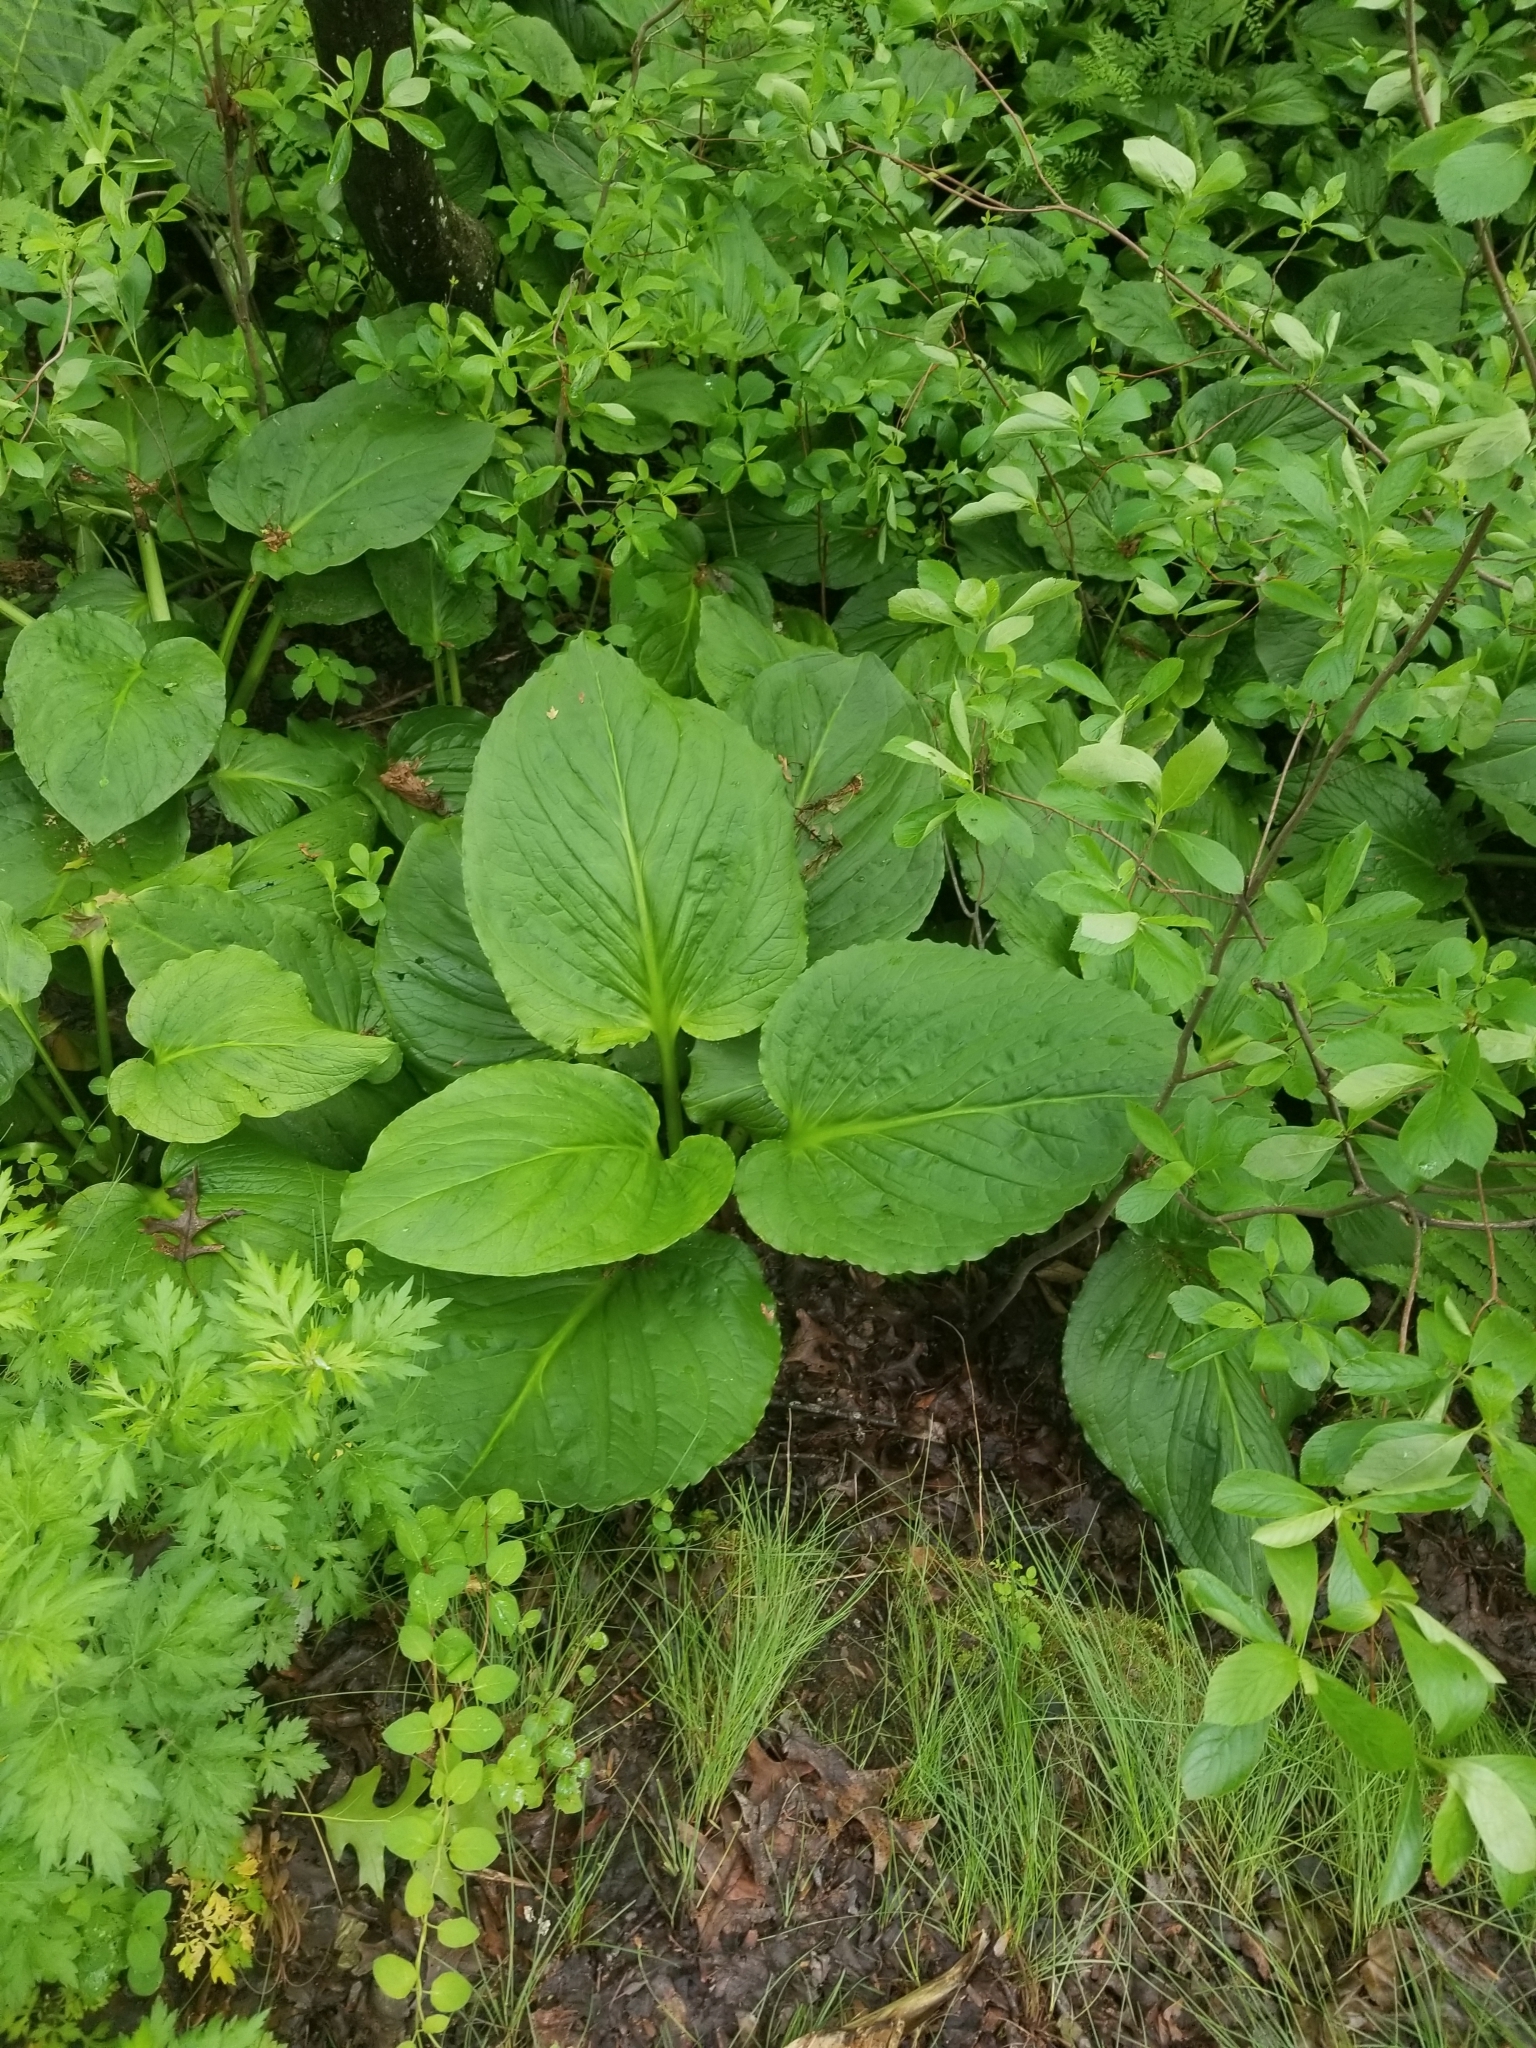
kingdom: Plantae
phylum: Tracheophyta
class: Liliopsida
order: Alismatales
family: Araceae
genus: Symplocarpus
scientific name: Symplocarpus foetidus
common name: Eastern skunk cabbage
